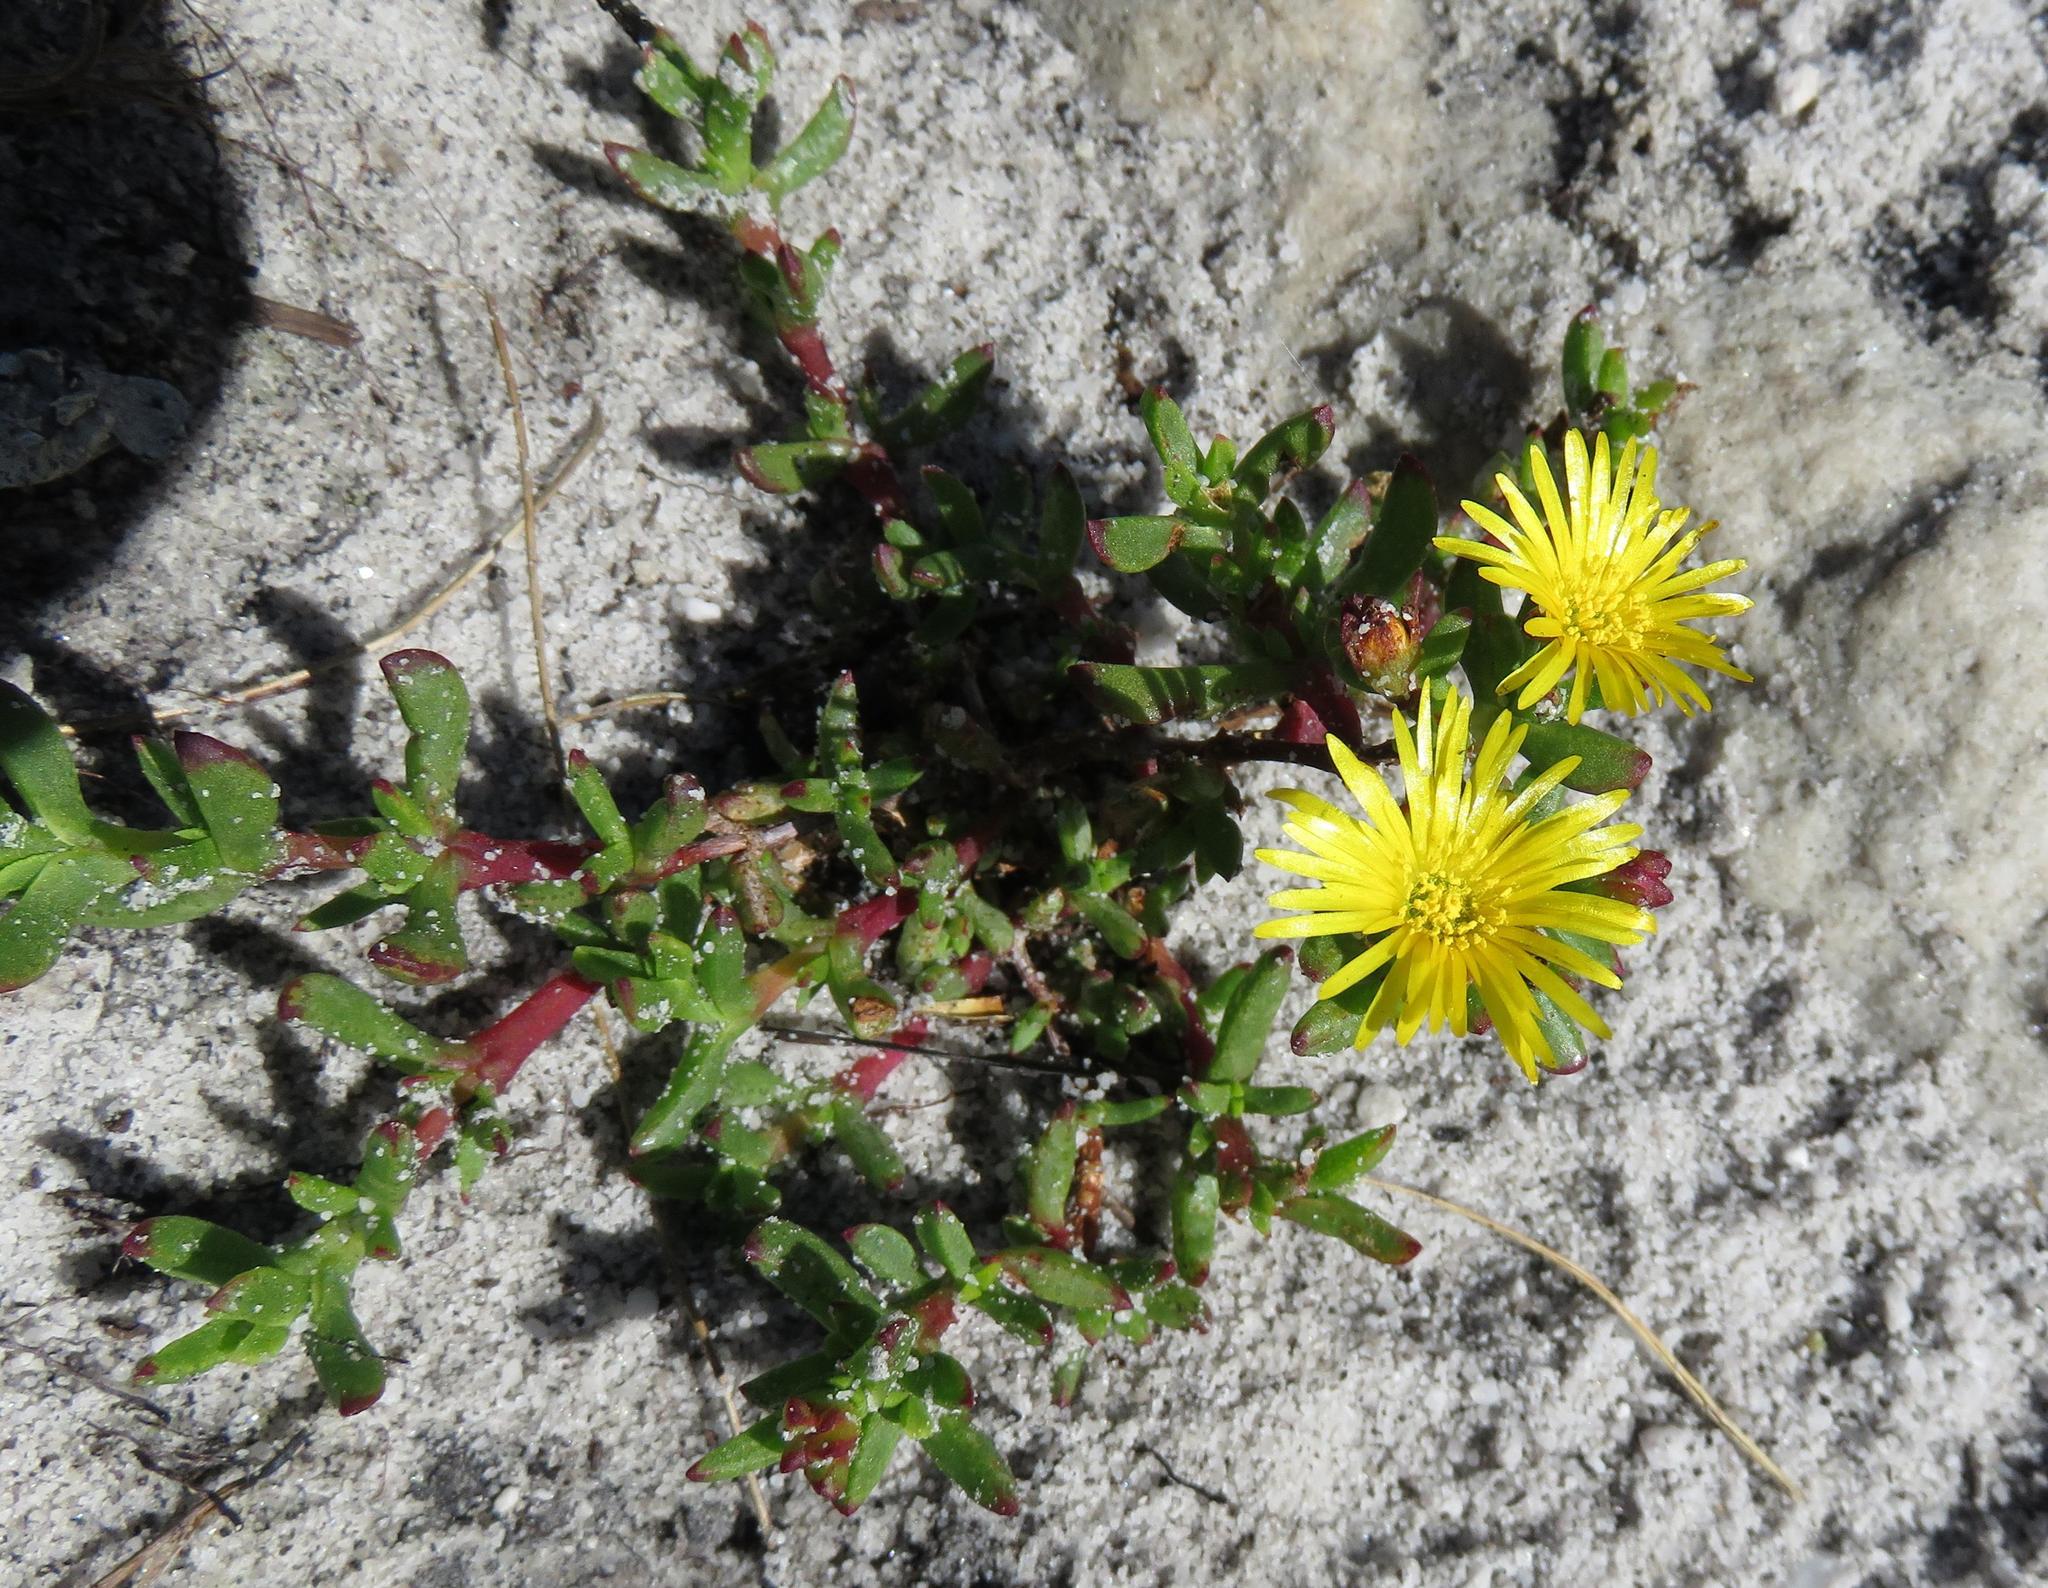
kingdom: Plantae
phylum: Tracheophyta
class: Magnoliopsida
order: Caryophyllales
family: Aizoaceae
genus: Lampranthus
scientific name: Lampranthus bicolor
